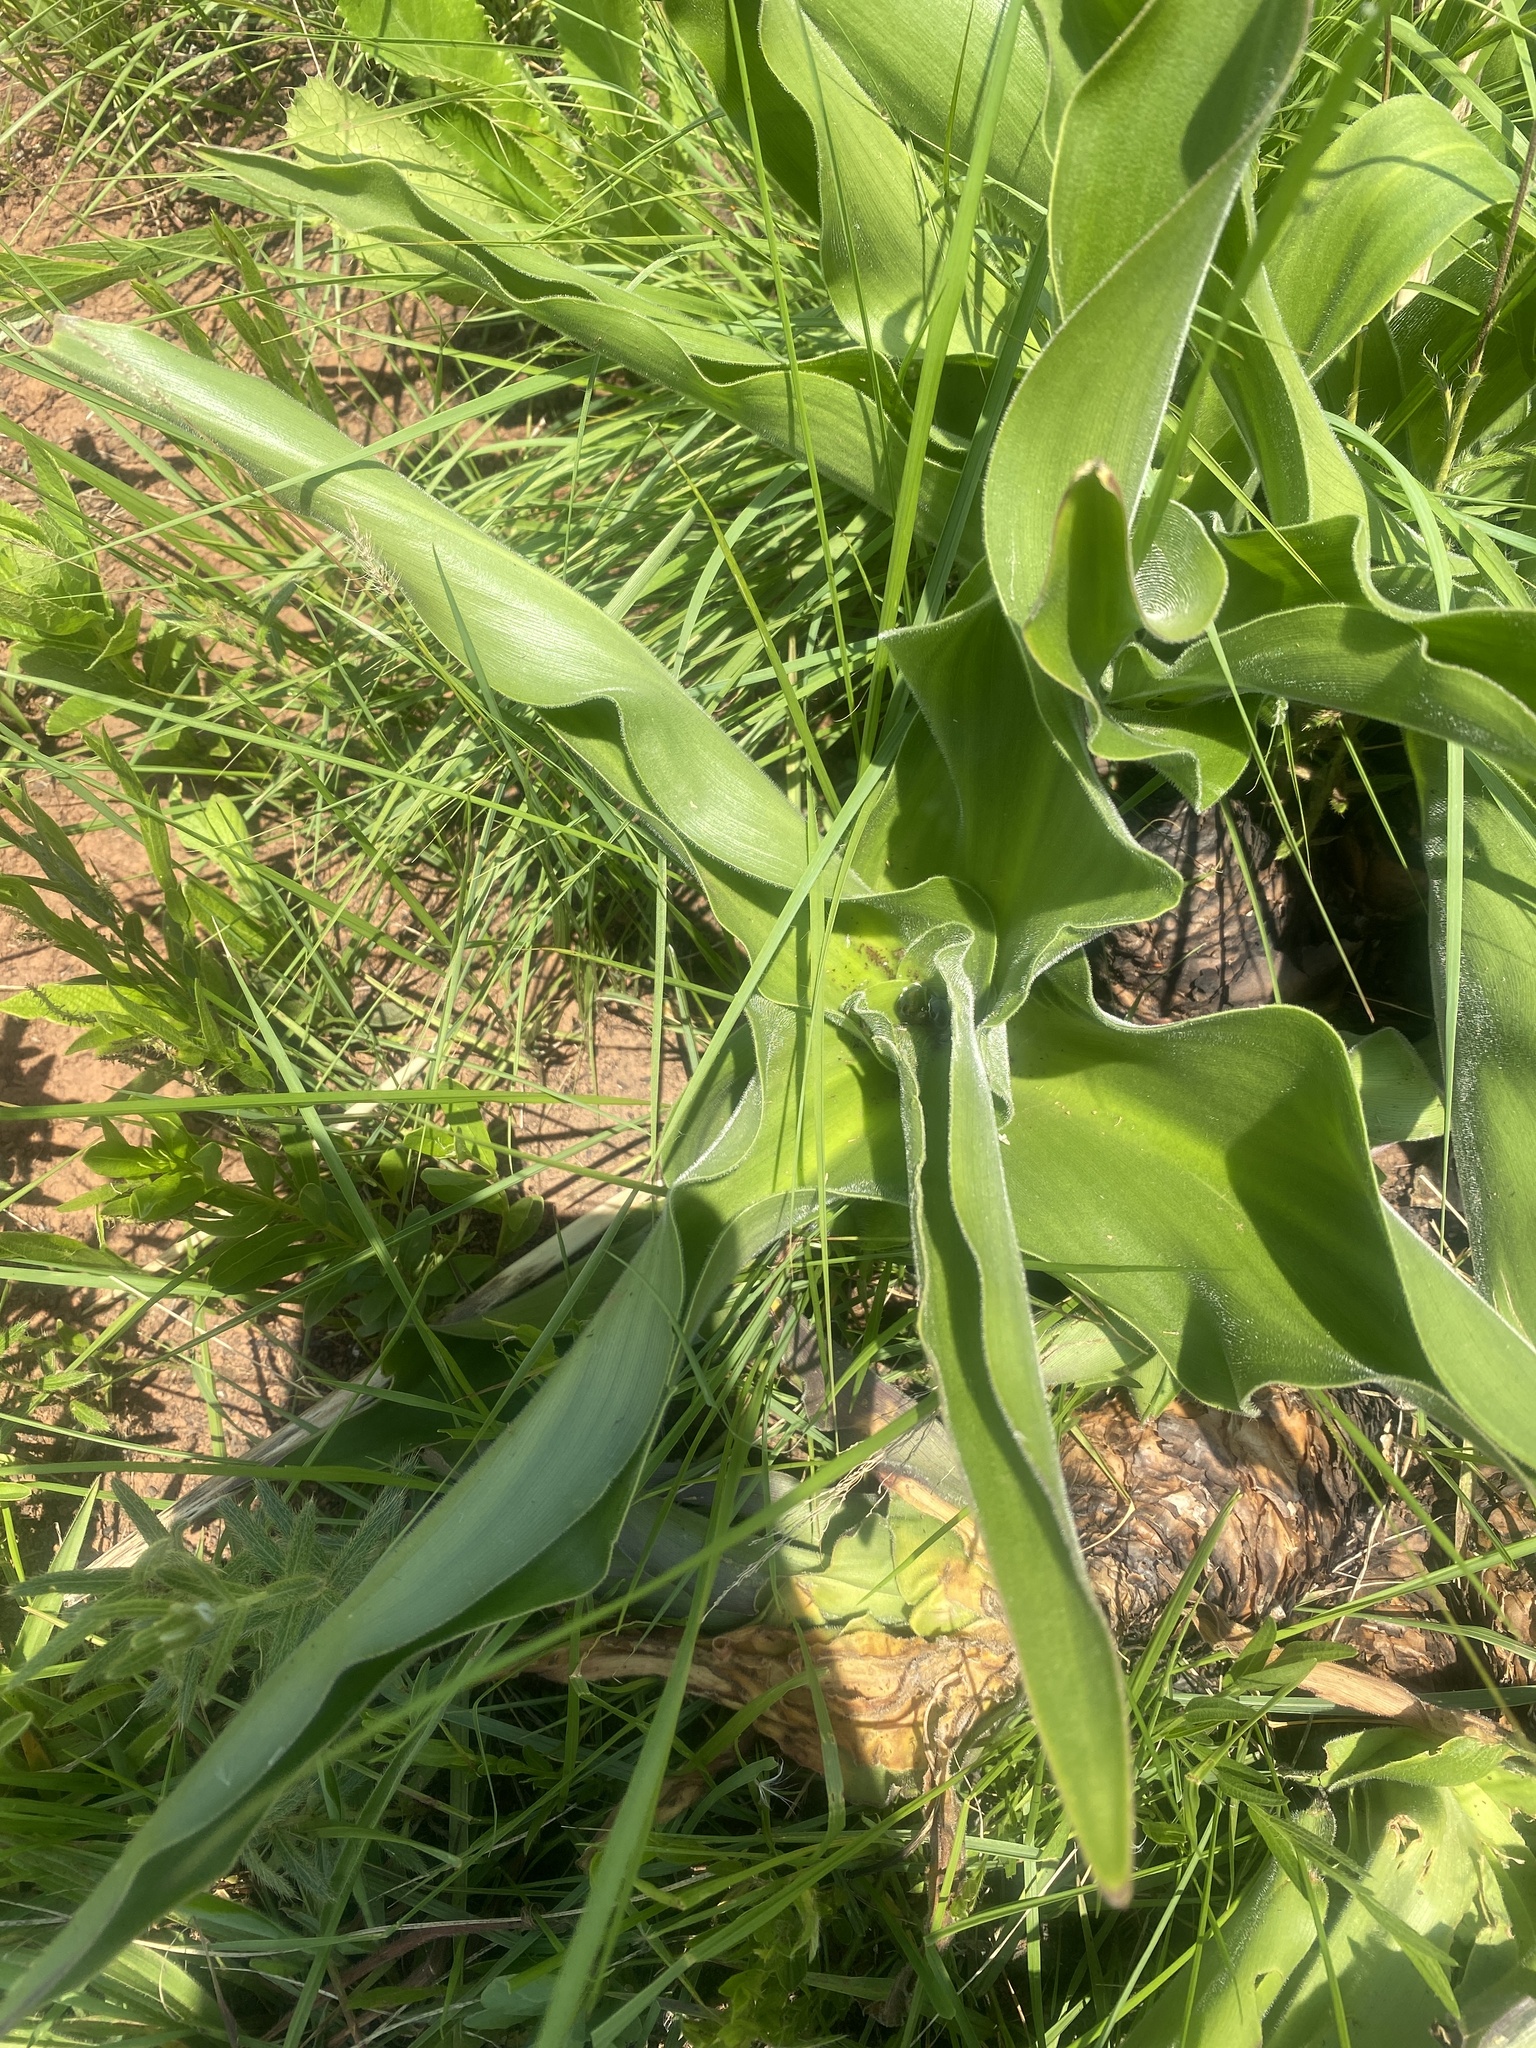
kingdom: Plantae
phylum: Tracheophyta
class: Liliopsida
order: Asparagales
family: Asparagaceae
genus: Merwilla
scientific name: Merwilla plumbea
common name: Blue-squill
